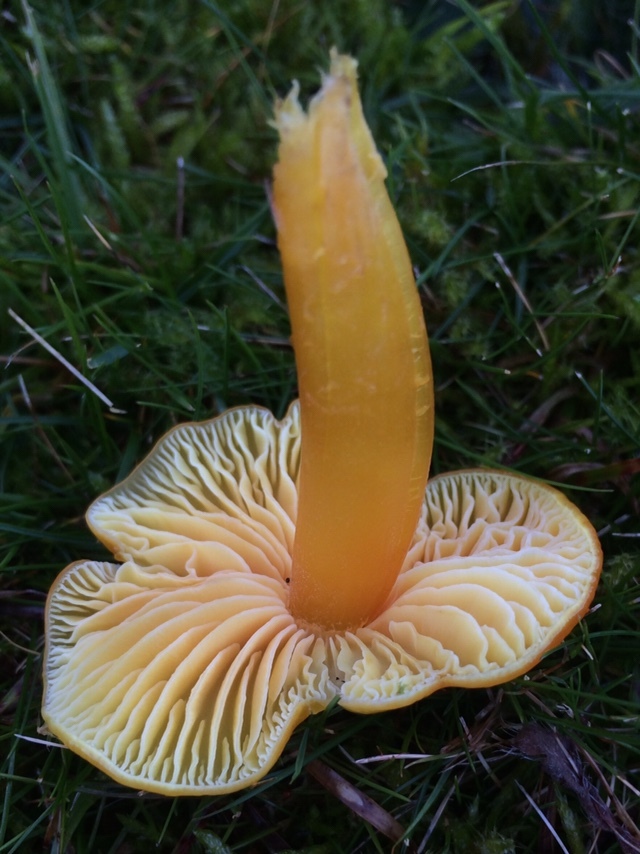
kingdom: Fungi
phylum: Basidiomycota
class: Agaricomycetes
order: Agaricales
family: Hygrophoraceae
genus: Hygrocybe
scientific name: Hygrocybe chlorophana
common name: Golden waxcap
